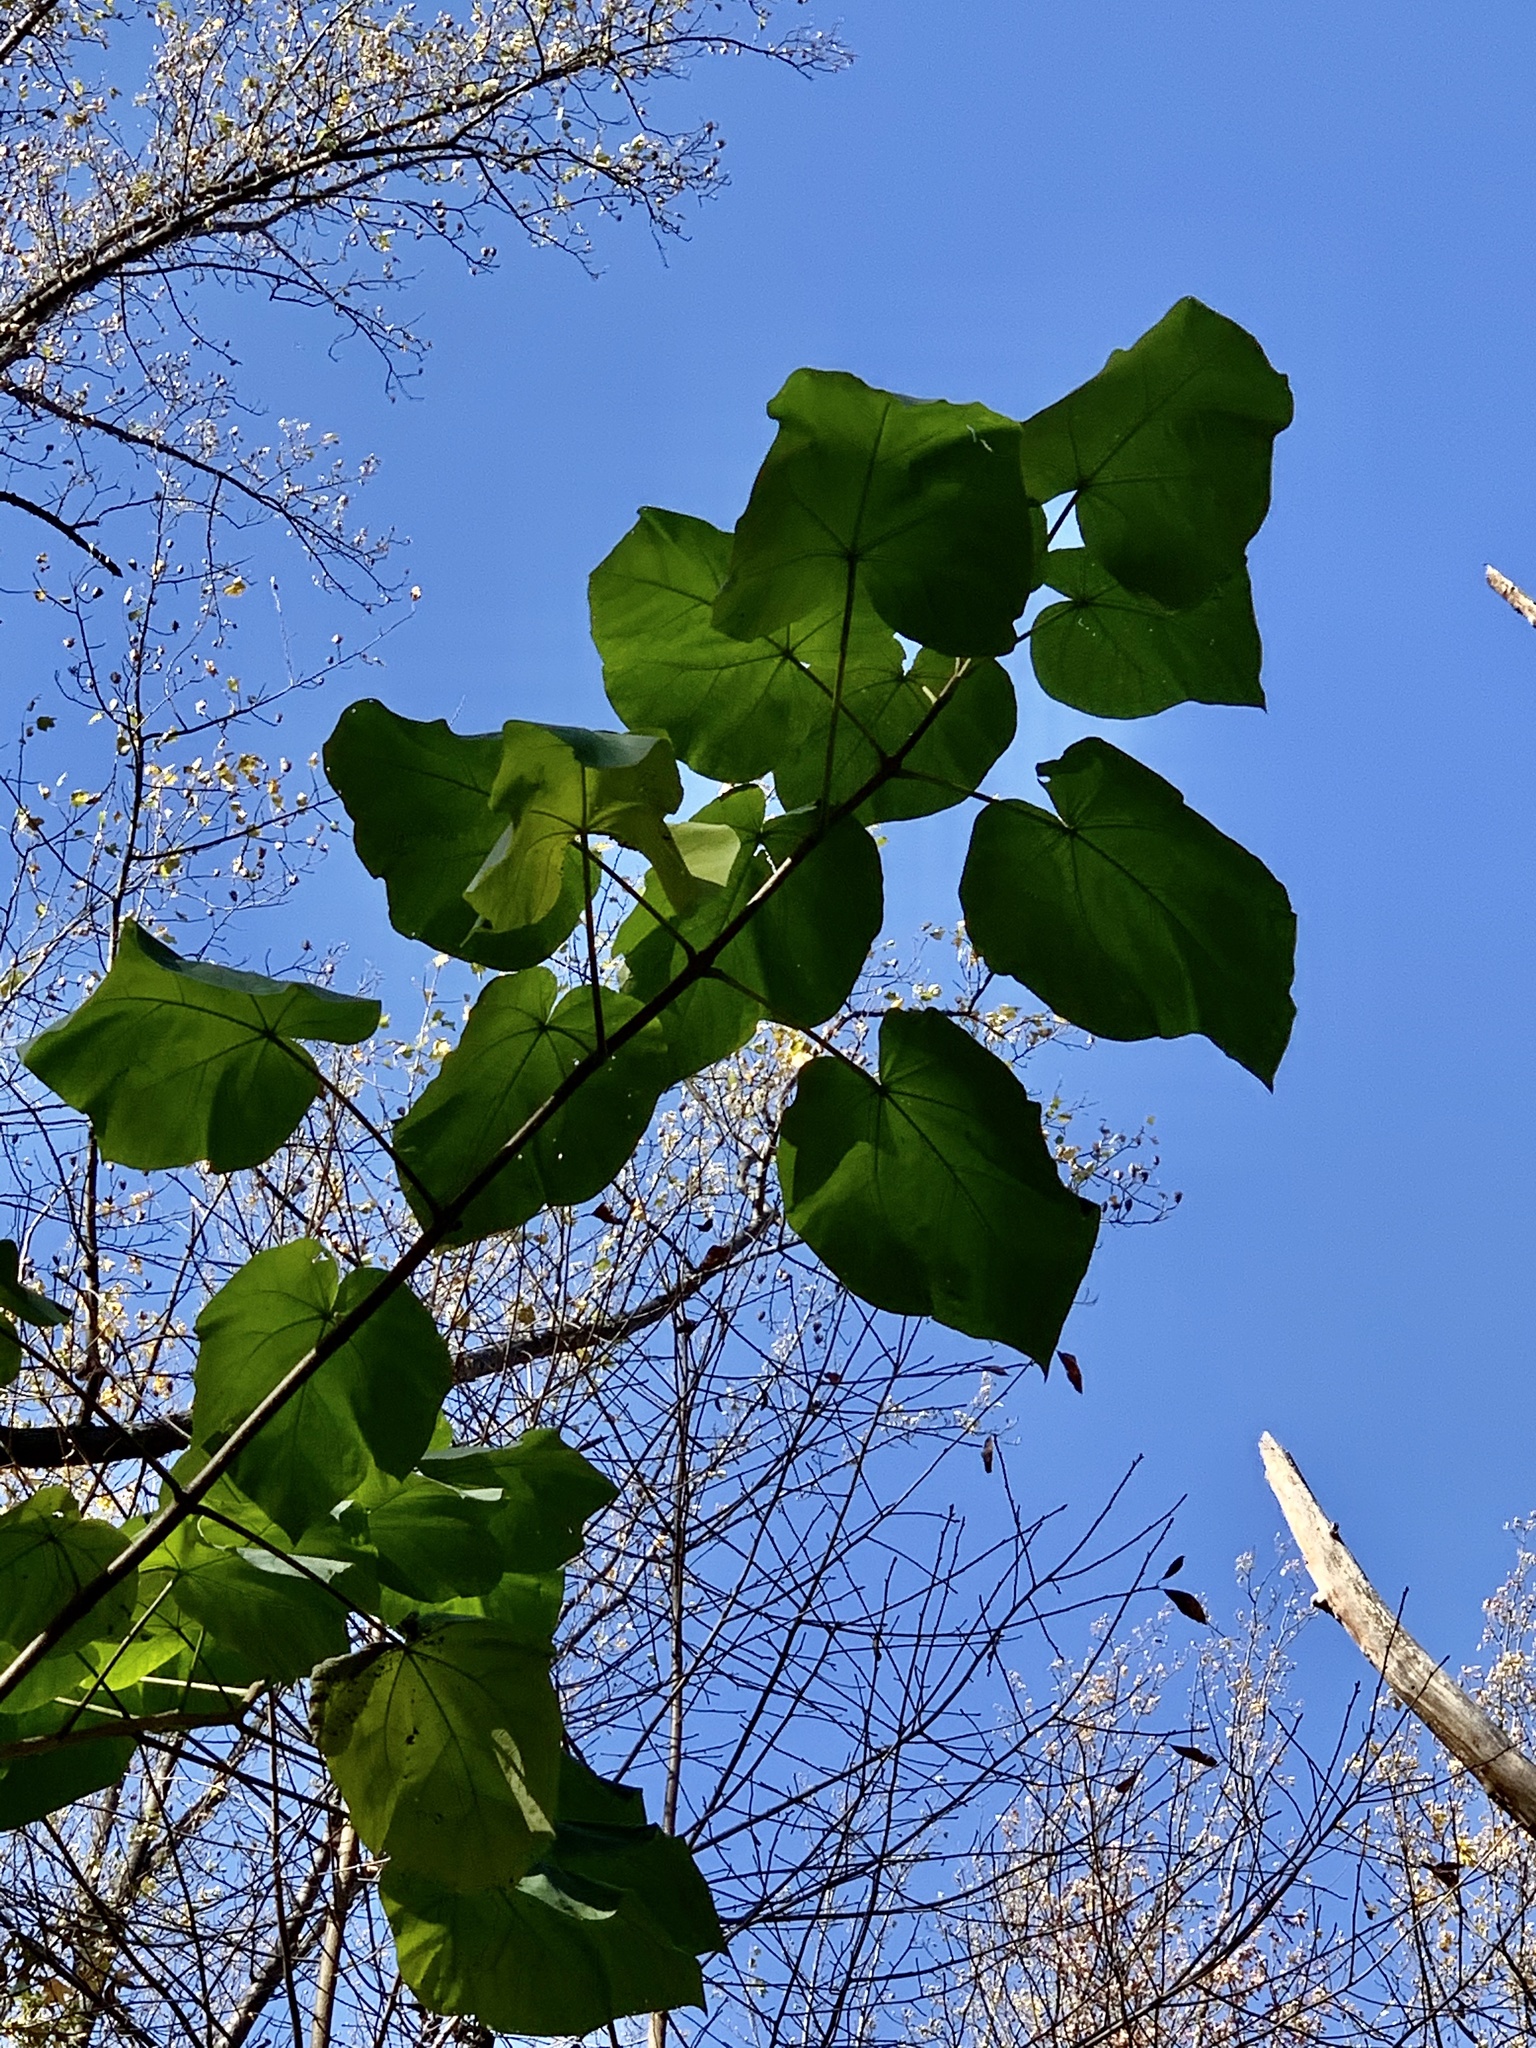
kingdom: Plantae
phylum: Tracheophyta
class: Magnoliopsida
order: Lamiales
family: Paulowniaceae
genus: Paulownia
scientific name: Paulownia tomentosa
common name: Foxglove-tree
